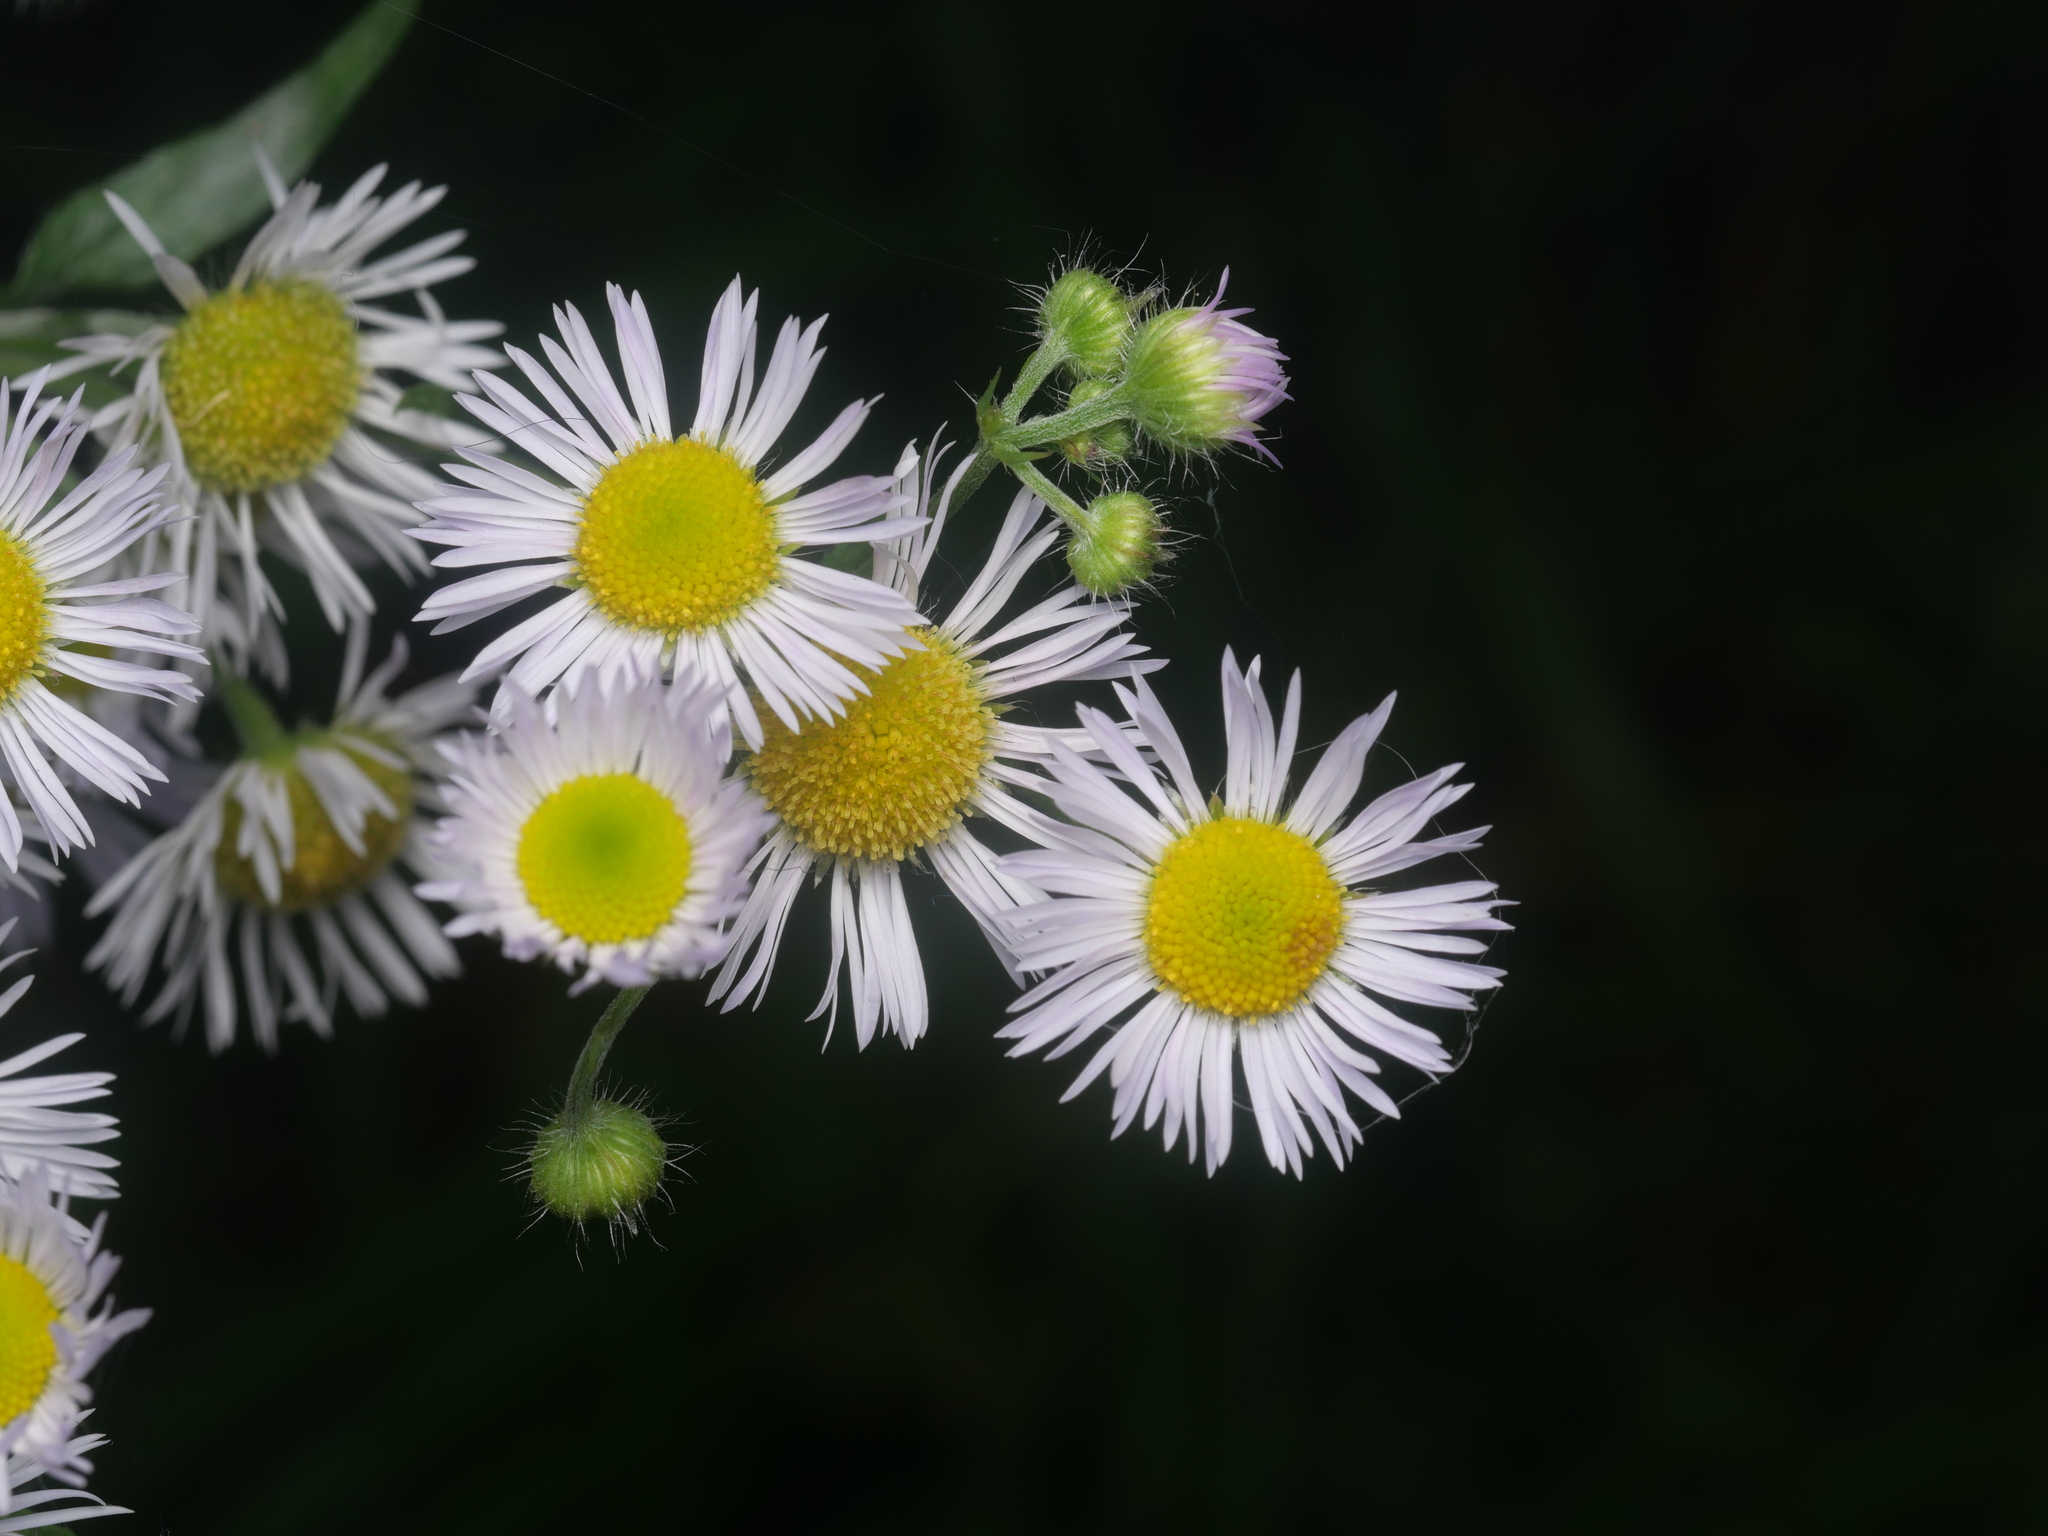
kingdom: Plantae
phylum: Tracheophyta
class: Magnoliopsida
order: Asterales
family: Asteraceae
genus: Erigeron
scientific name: Erigeron annuus
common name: Tall fleabane
